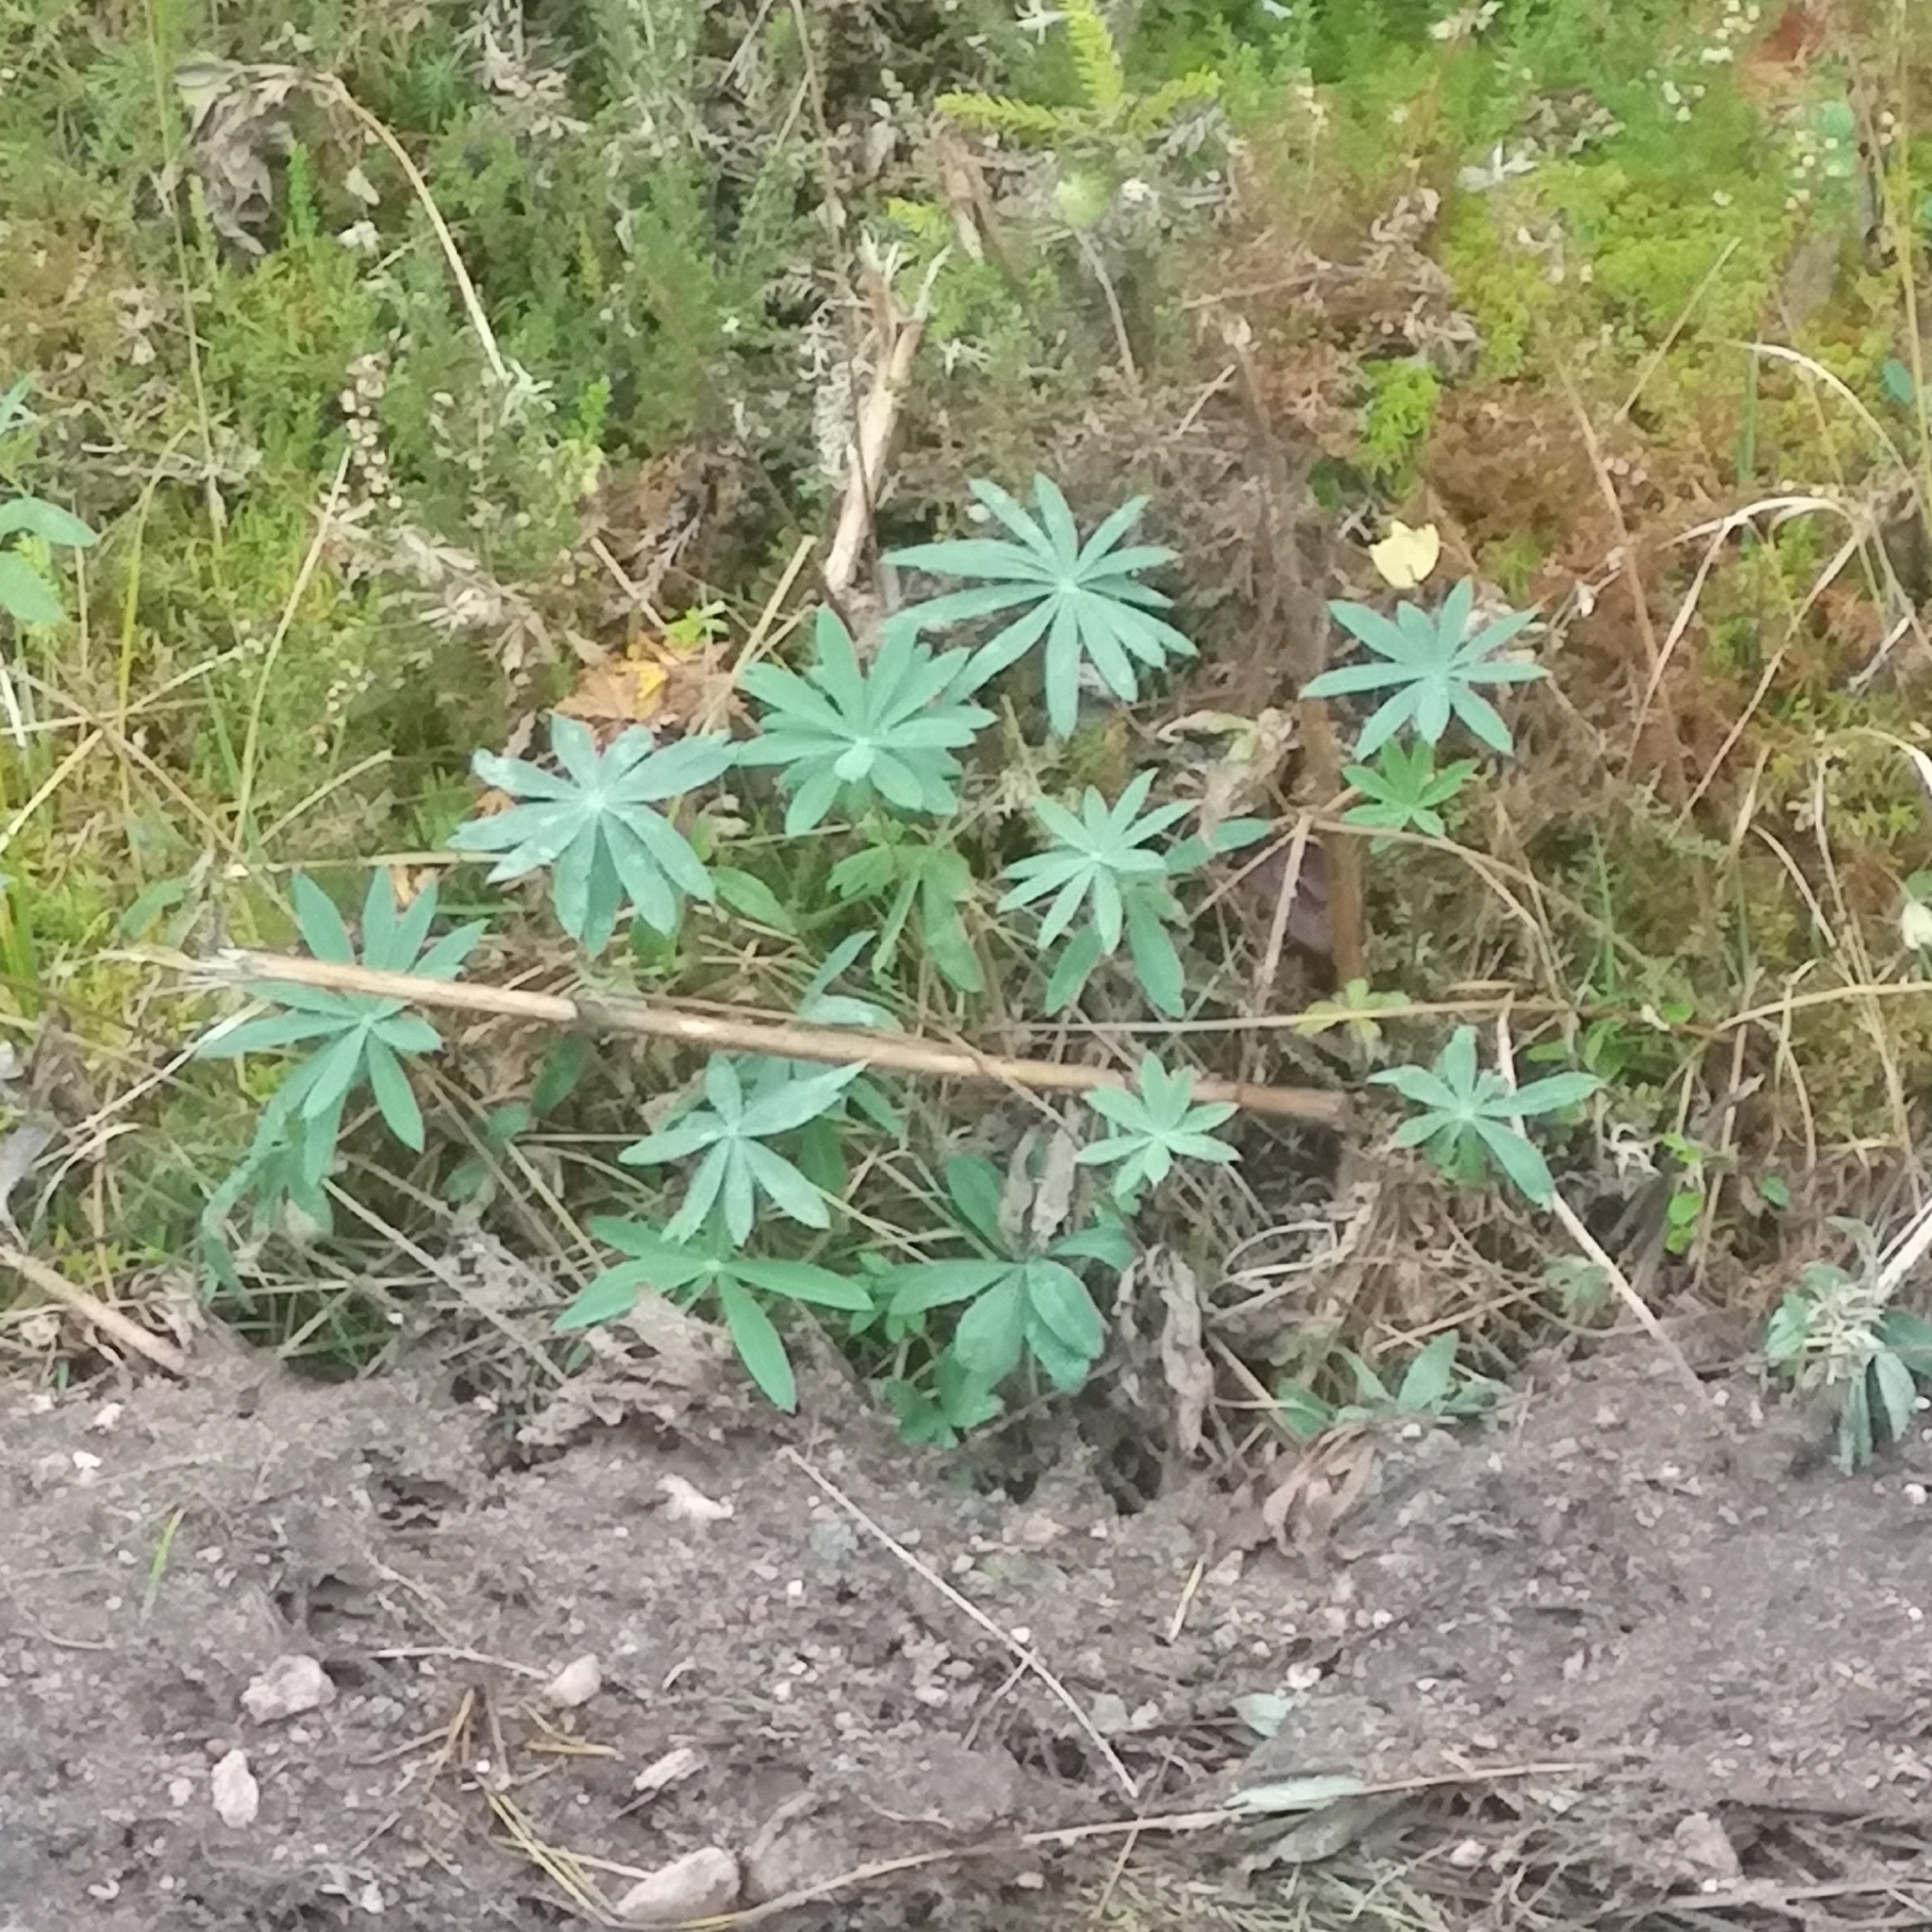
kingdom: Plantae
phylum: Tracheophyta
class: Magnoliopsida
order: Fabales
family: Fabaceae
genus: Lupinus
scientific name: Lupinus polyphyllus
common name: Garden lupin
